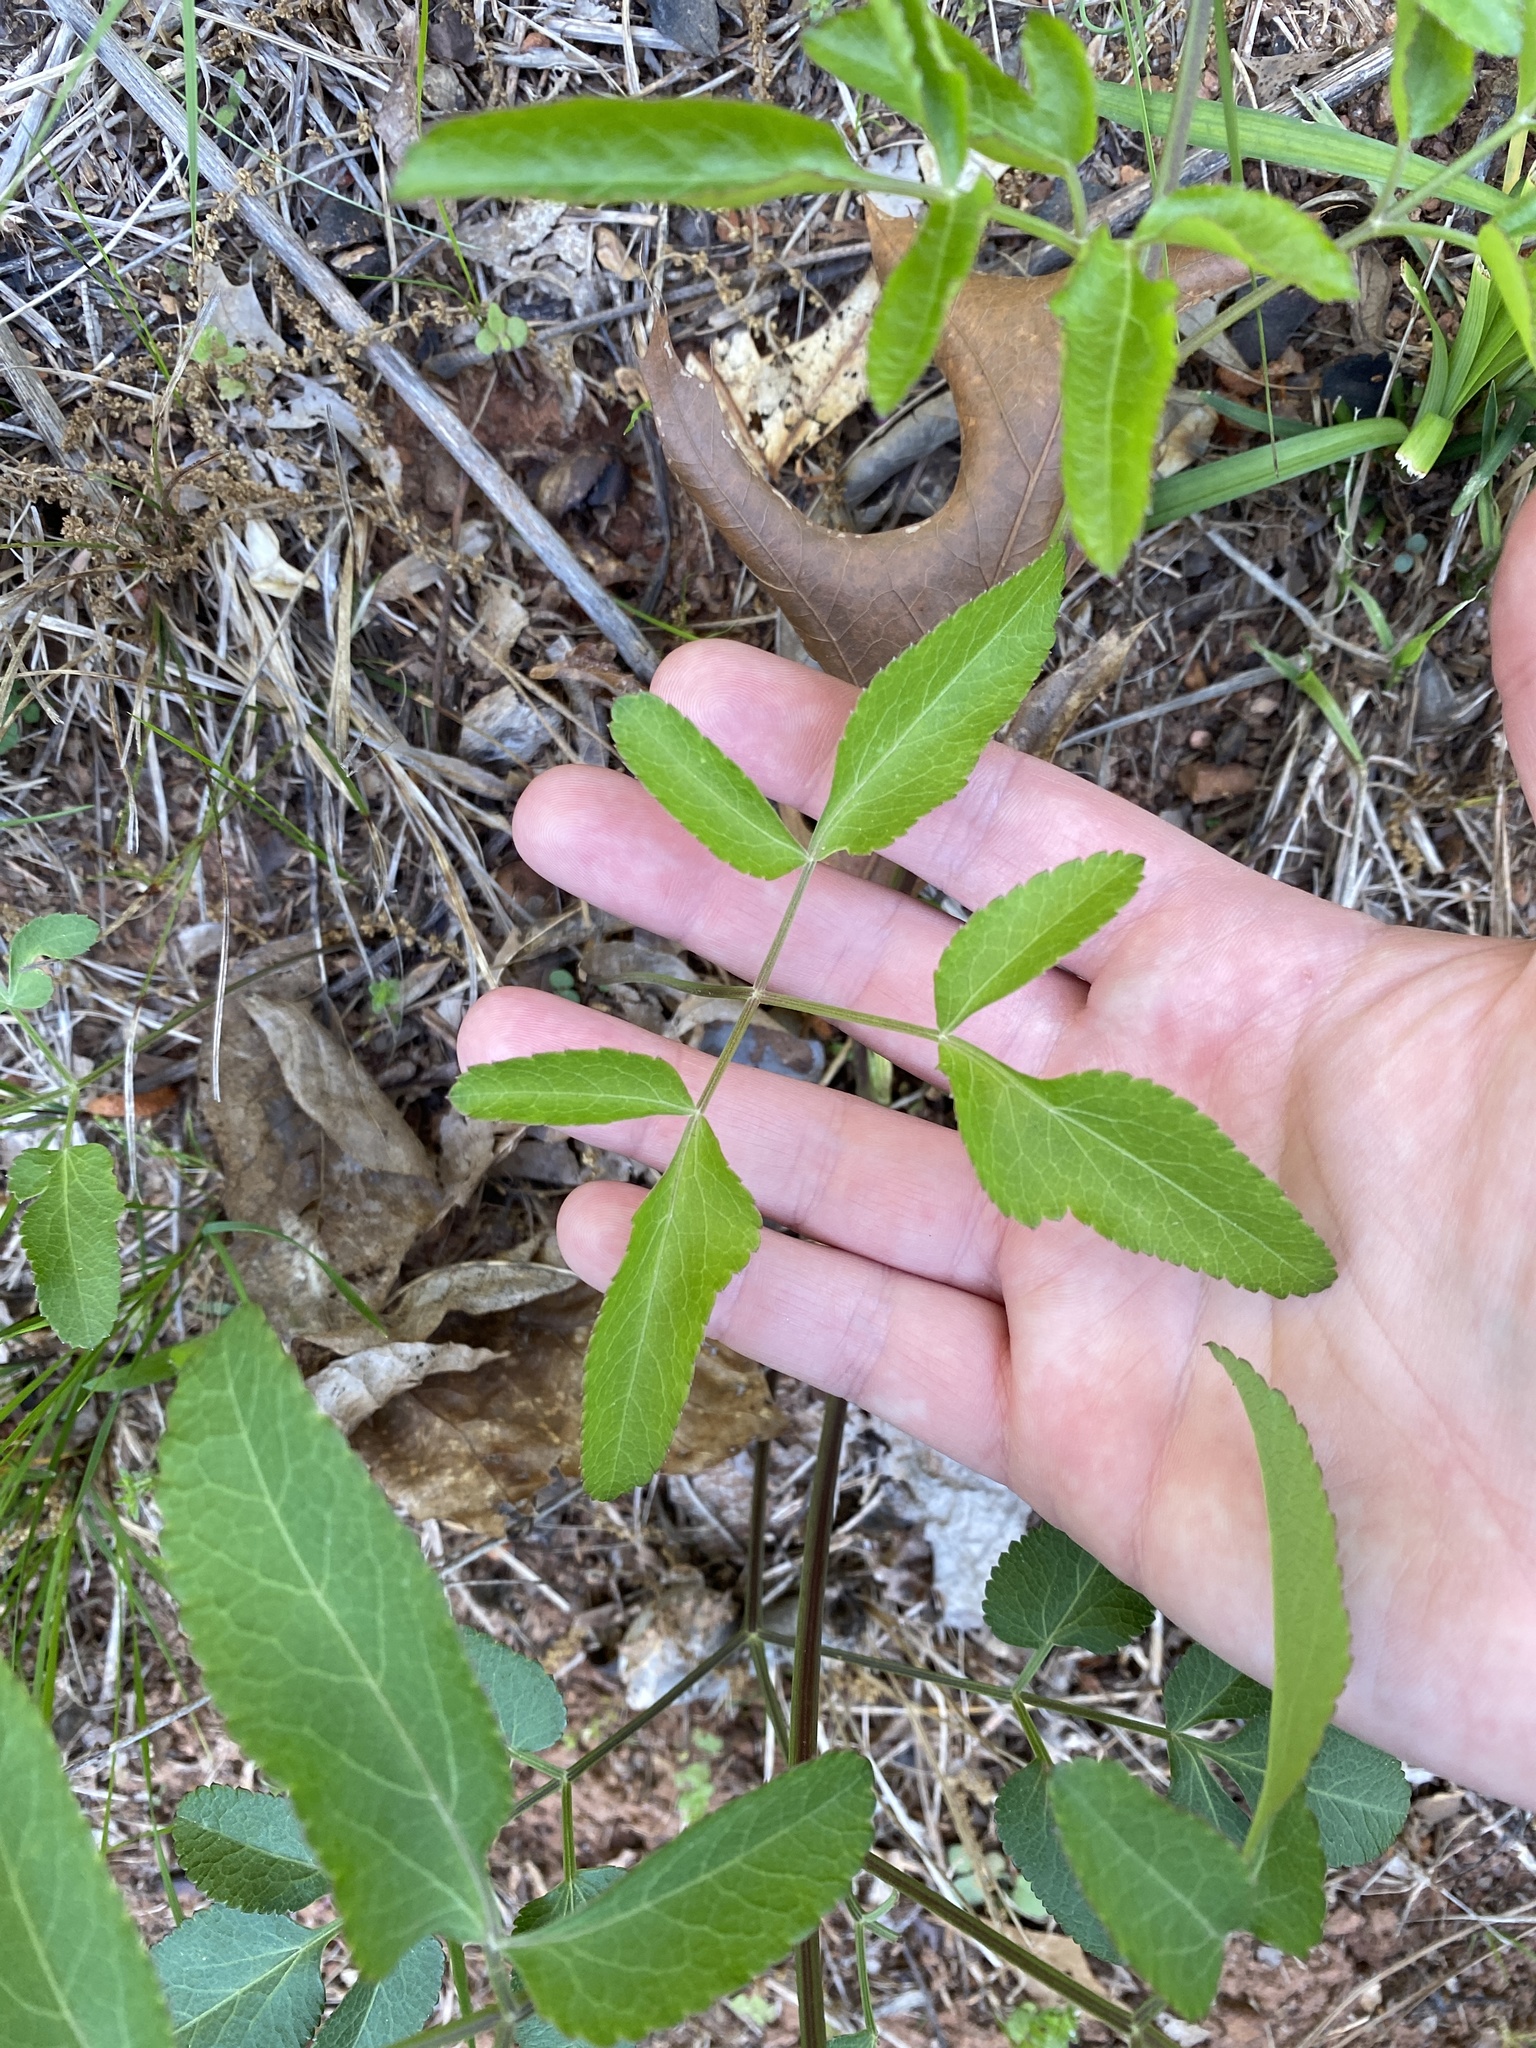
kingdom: Plantae
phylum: Tracheophyta
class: Magnoliopsida
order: Apiales
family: Apiaceae
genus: Zizia
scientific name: Zizia aurea
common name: Golden alexanders
